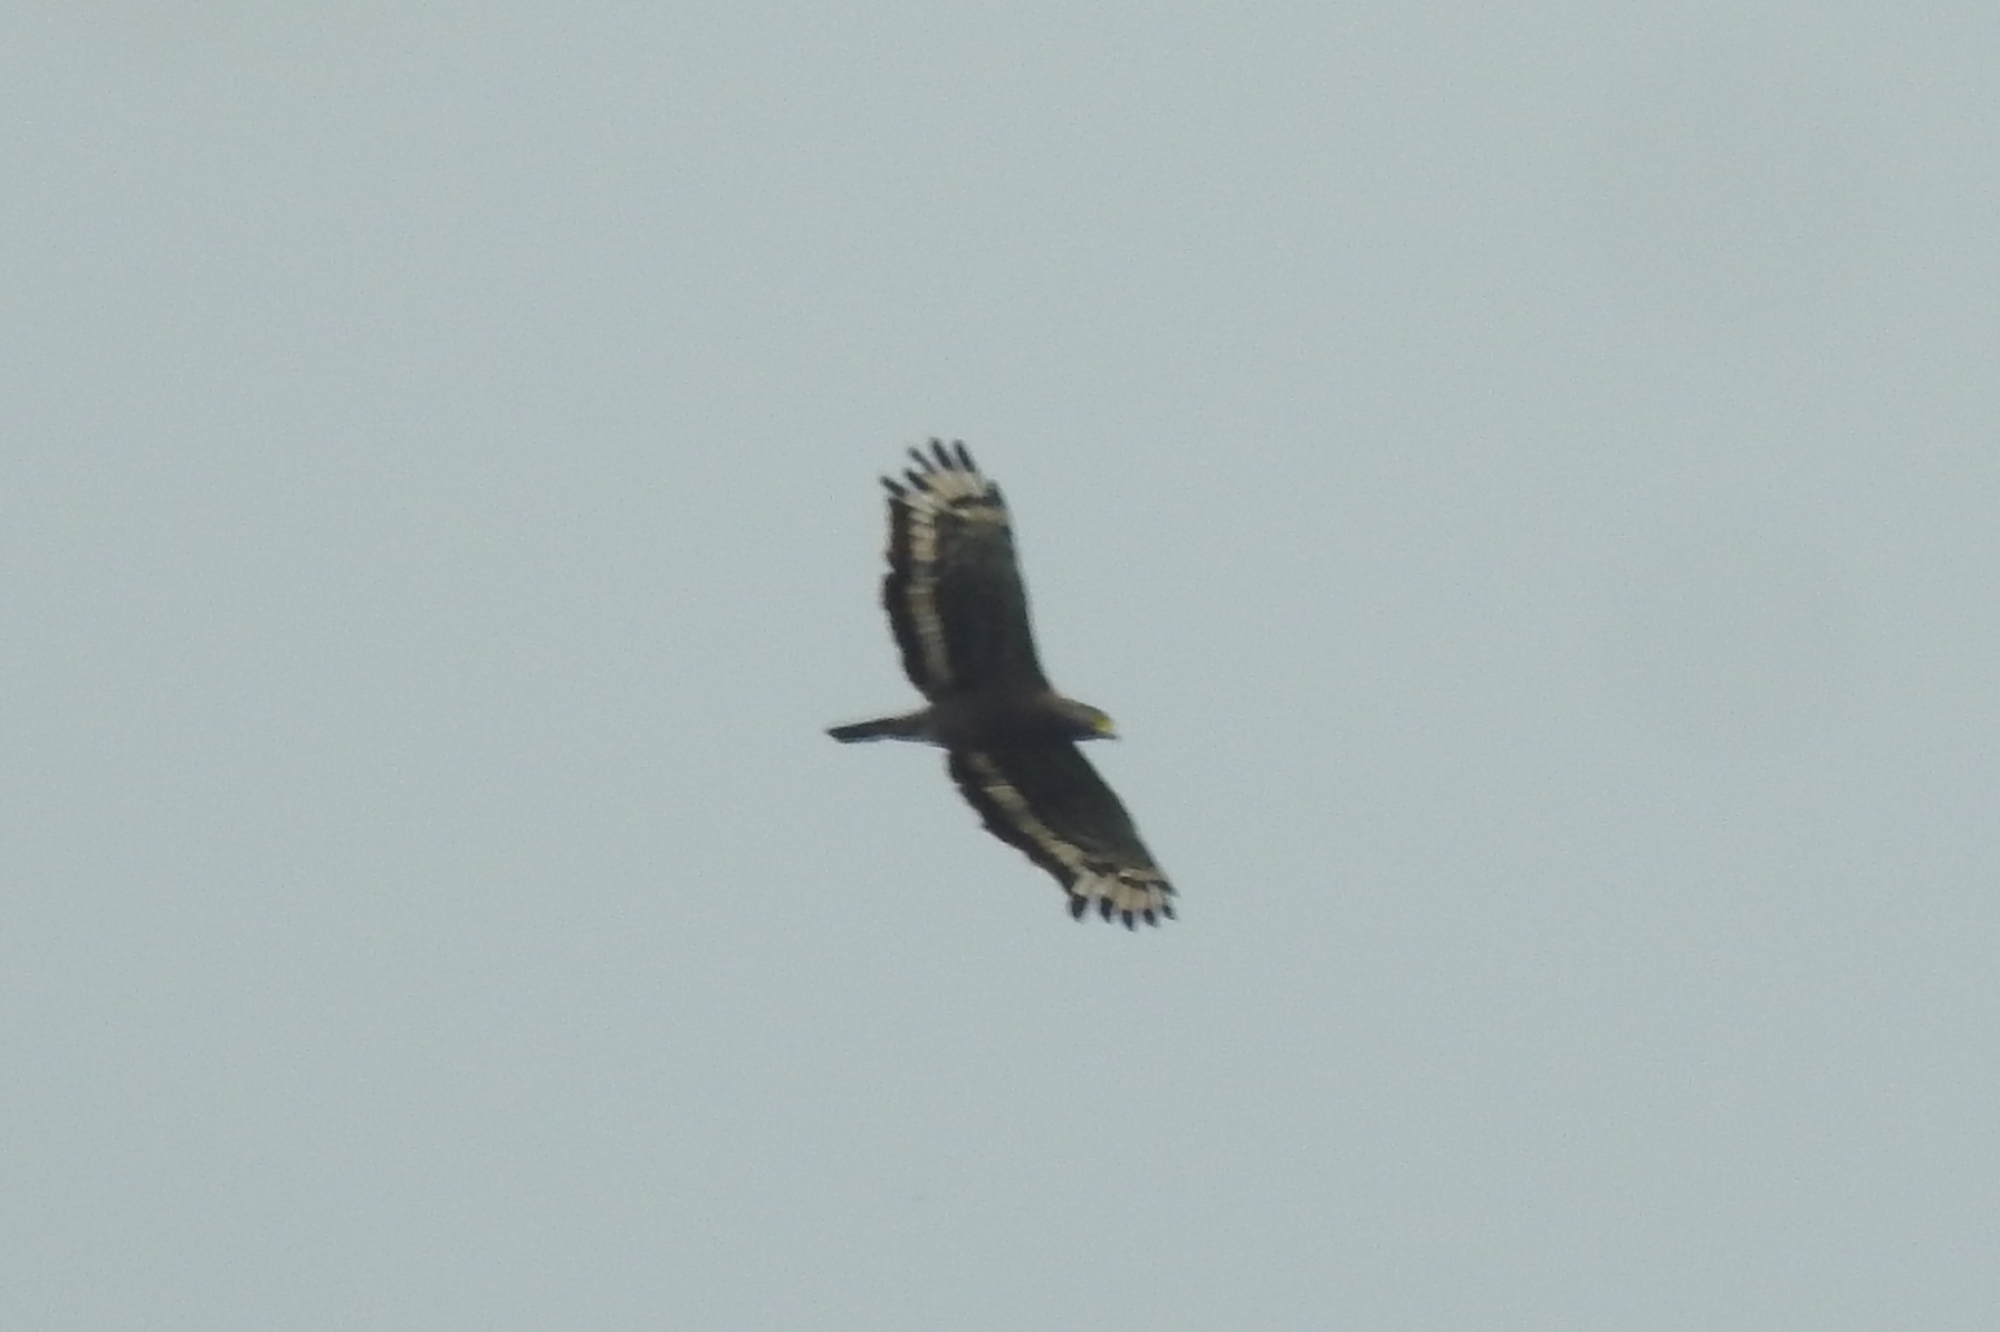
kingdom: Animalia
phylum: Chordata
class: Aves
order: Accipitriformes
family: Accipitridae
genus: Spilornis
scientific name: Spilornis cheela
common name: Crested serpent eagle
